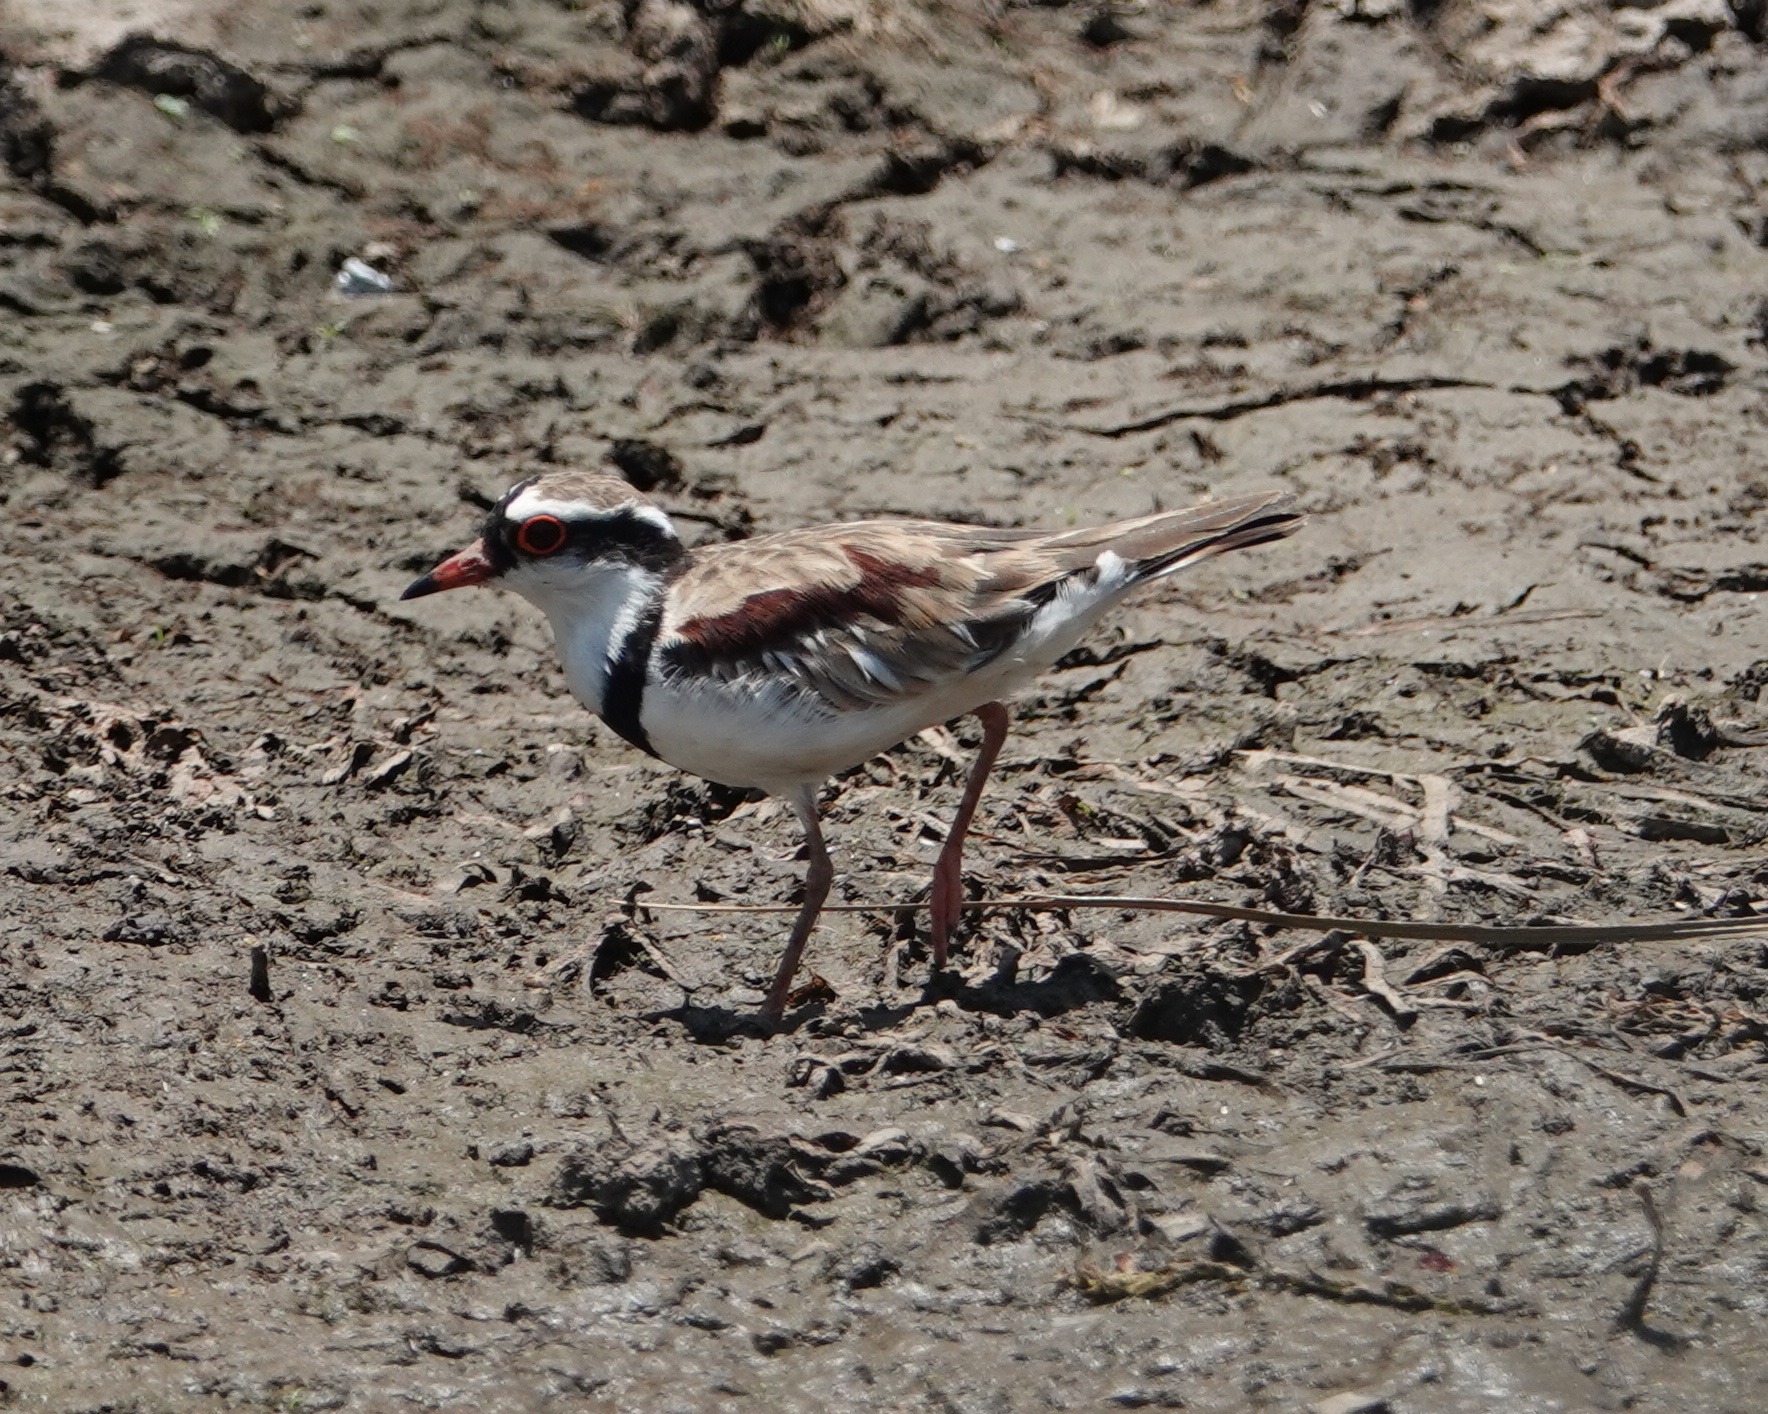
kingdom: Animalia
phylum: Chordata
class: Aves
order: Charadriiformes
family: Charadriidae
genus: Elseyornis
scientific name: Elseyornis melanops
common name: Black-fronted dotterel
